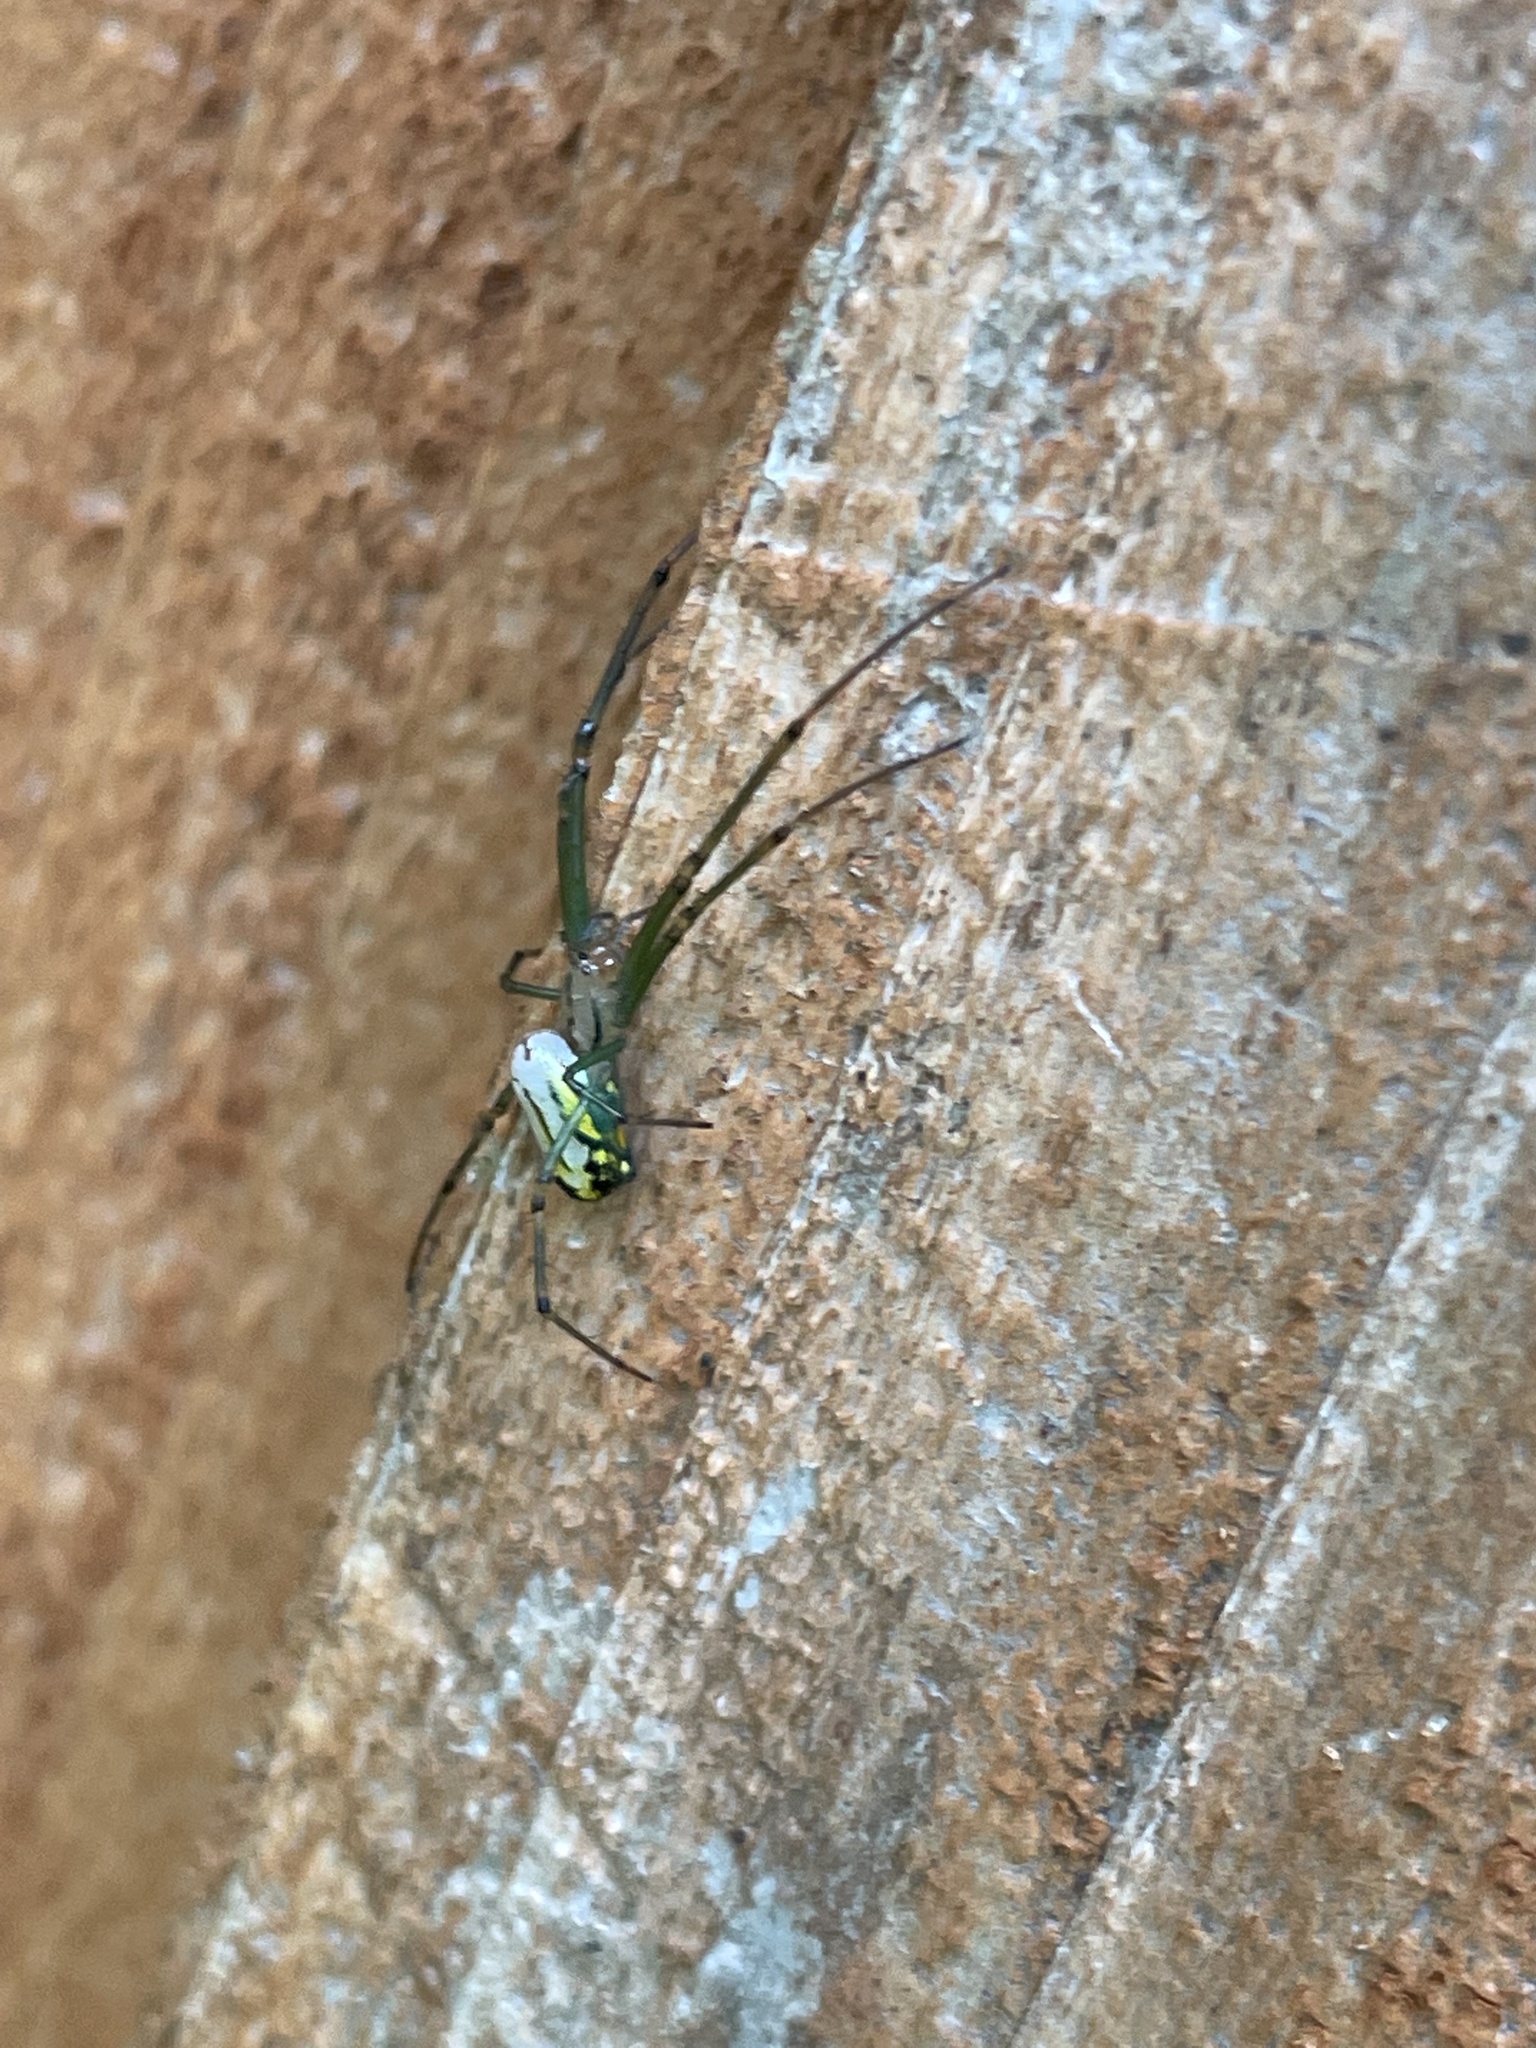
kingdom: Animalia
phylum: Arthropoda
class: Arachnida
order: Araneae
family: Tetragnathidae
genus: Leucauge
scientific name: Leucauge venusta
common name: Longjawed orb weavers
